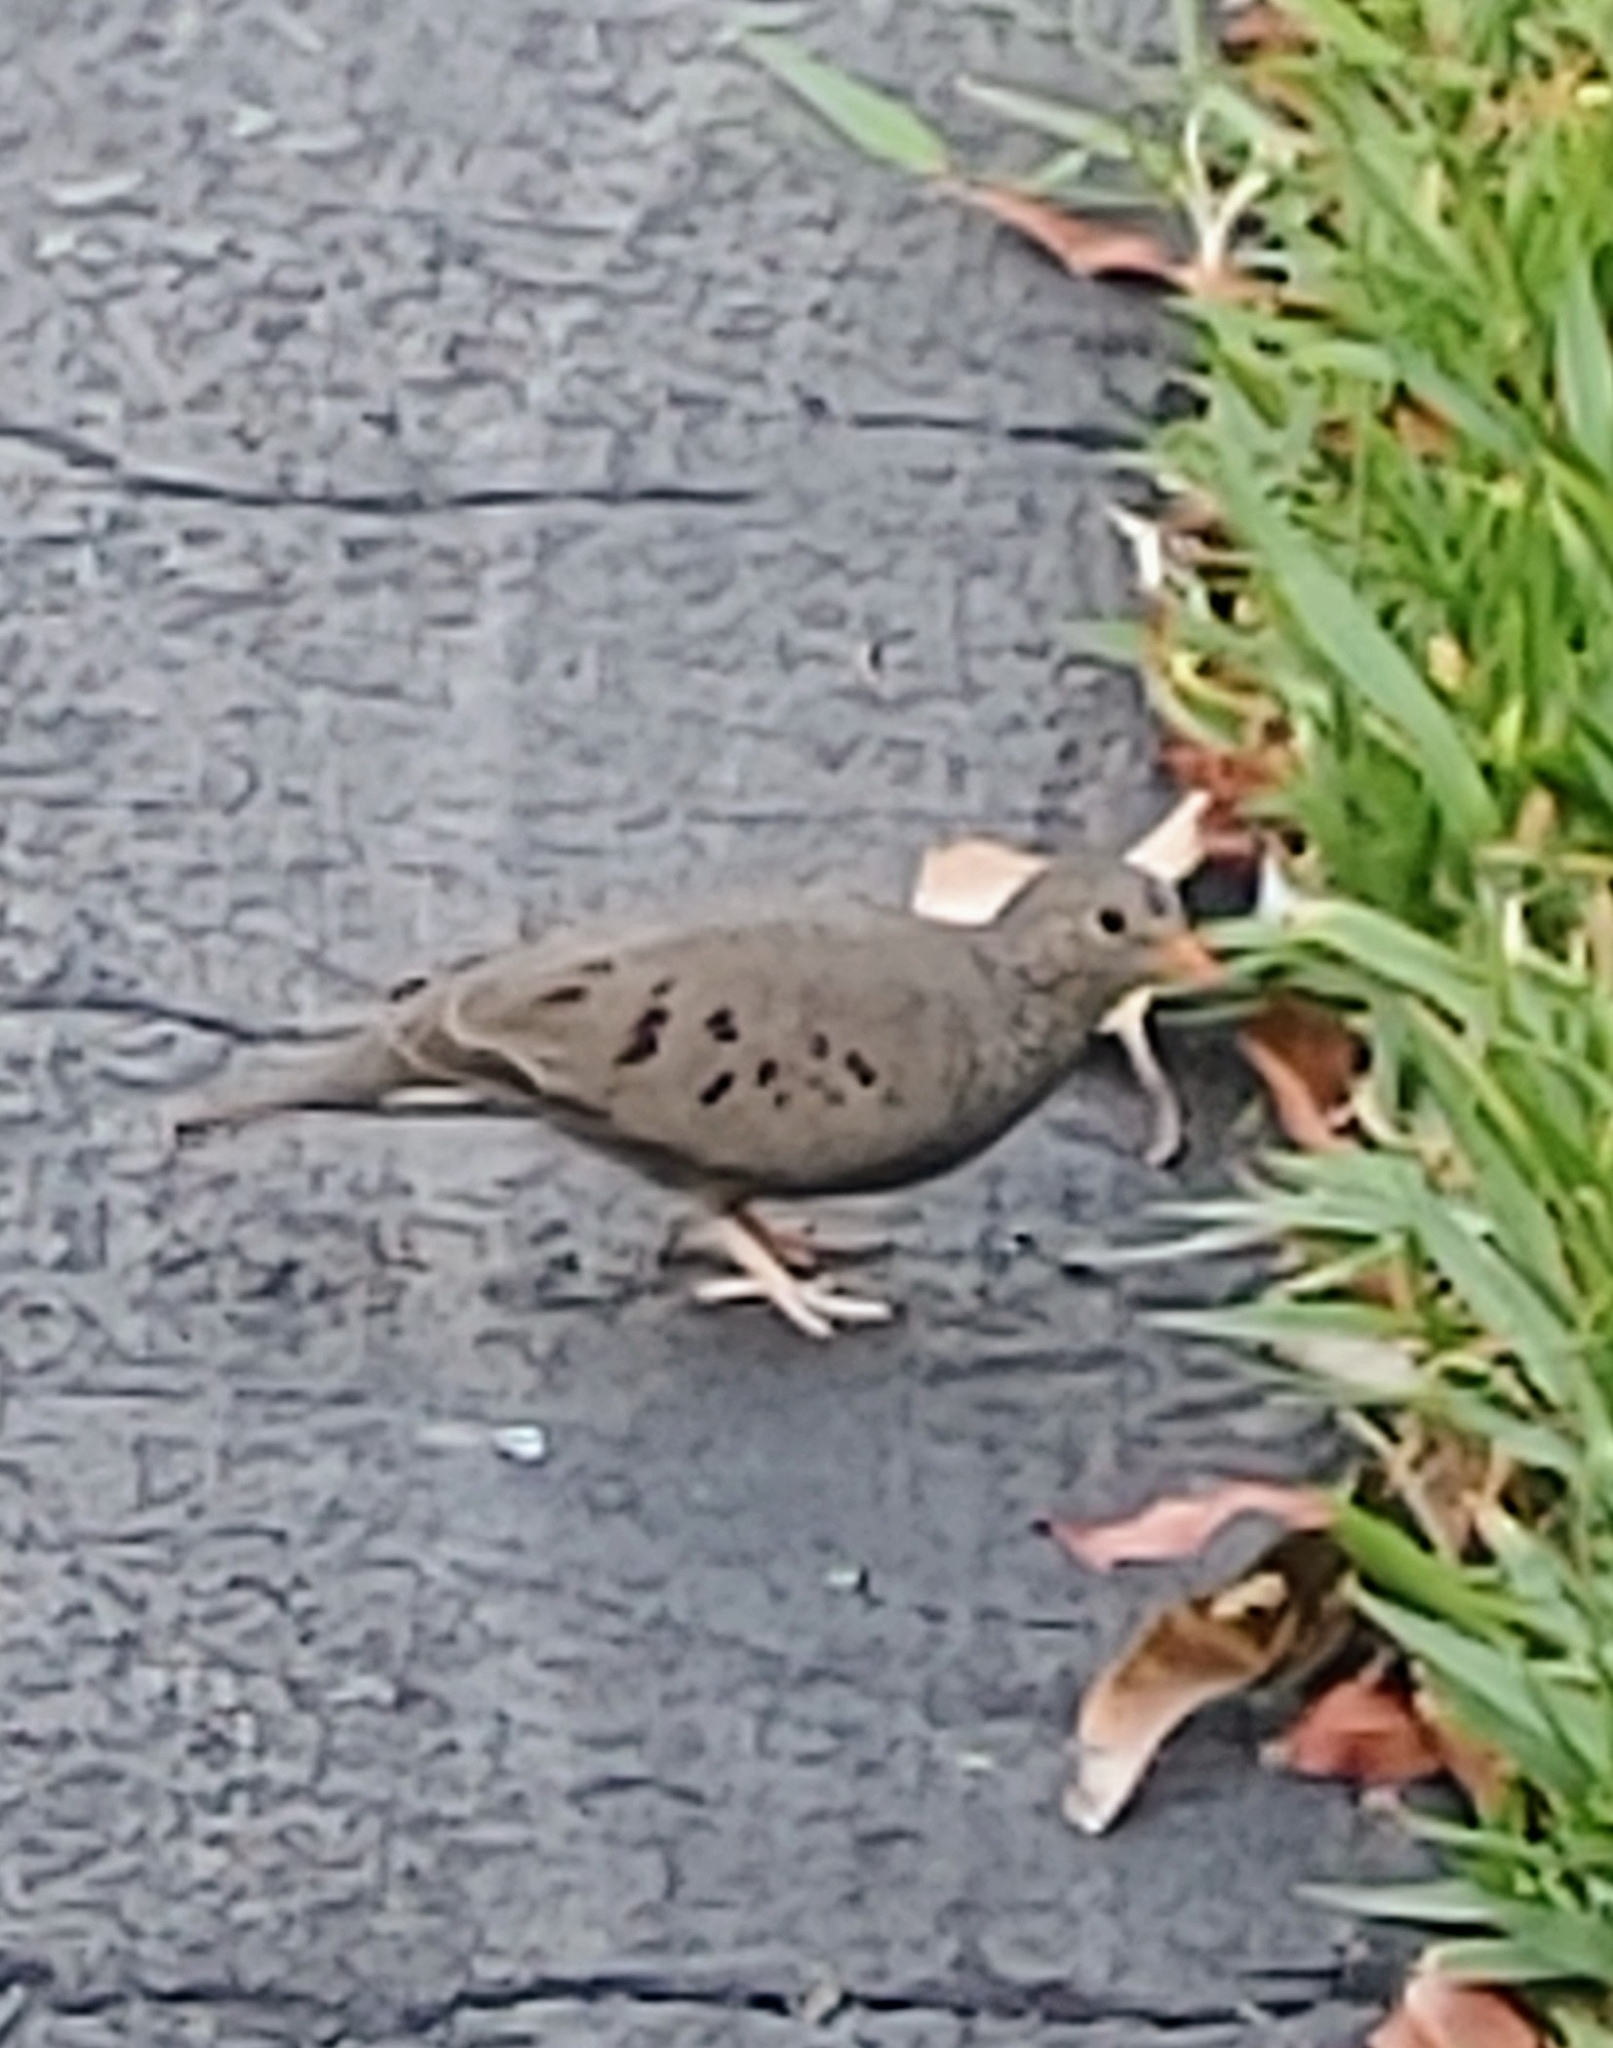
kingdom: Animalia
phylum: Chordata
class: Aves
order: Columbiformes
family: Columbidae
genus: Columbina
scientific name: Columbina passerina
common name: Common ground-dove
